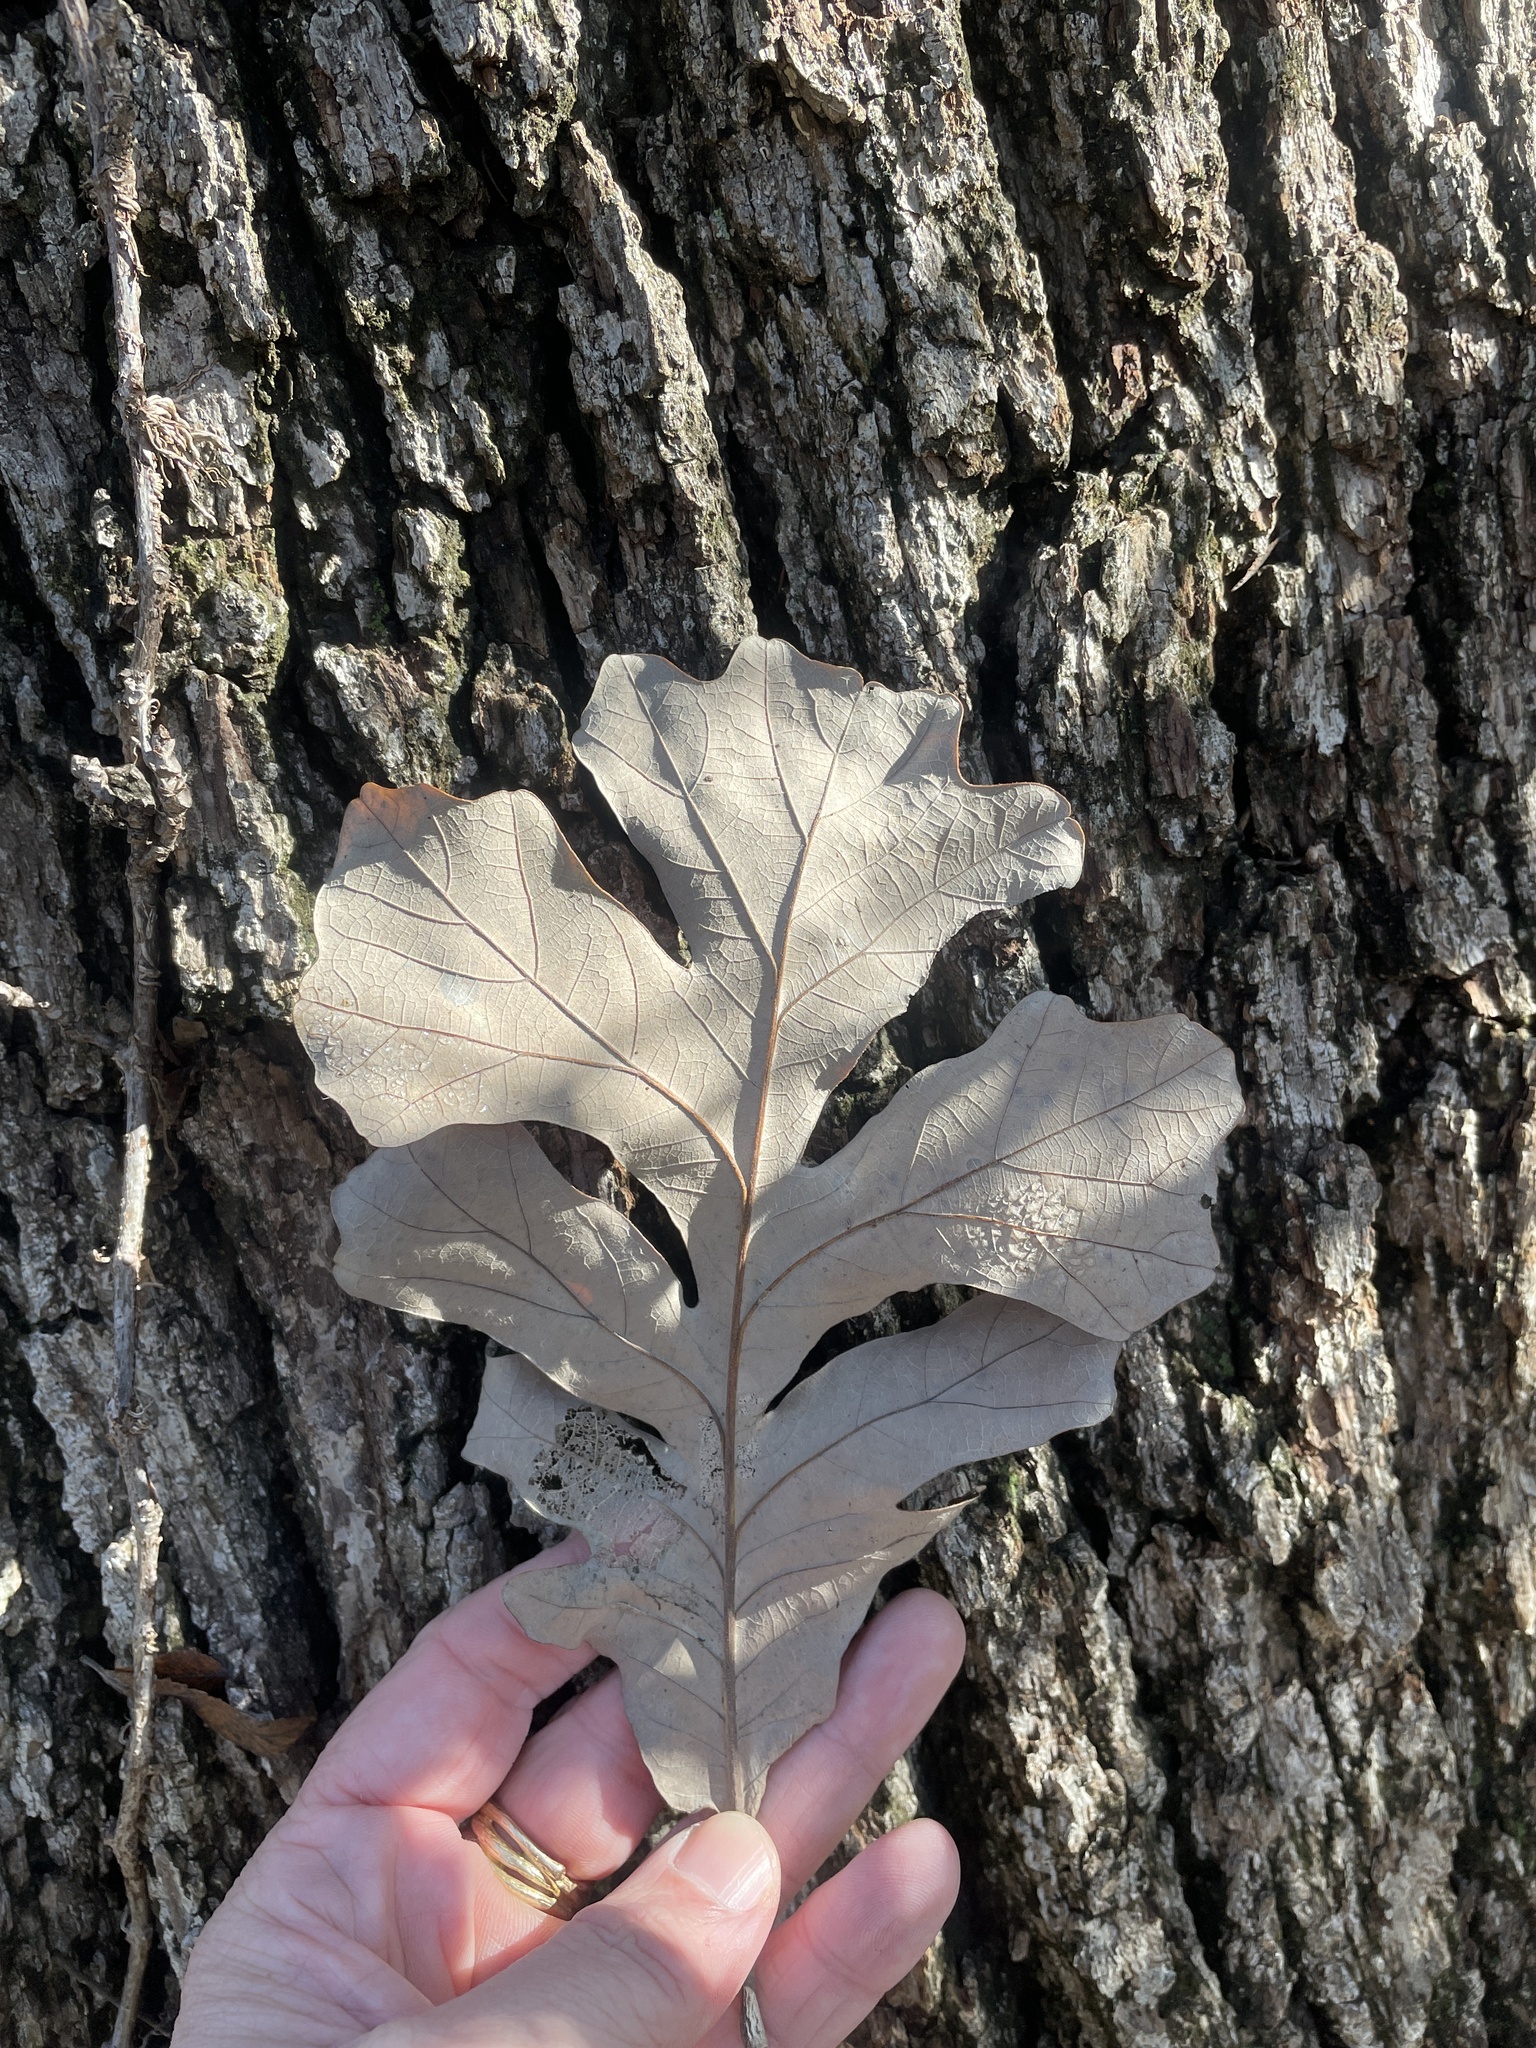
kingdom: Plantae
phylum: Tracheophyta
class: Magnoliopsida
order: Fagales
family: Fagaceae
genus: Quercus
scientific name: Quercus macrocarpa
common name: Bur oak
